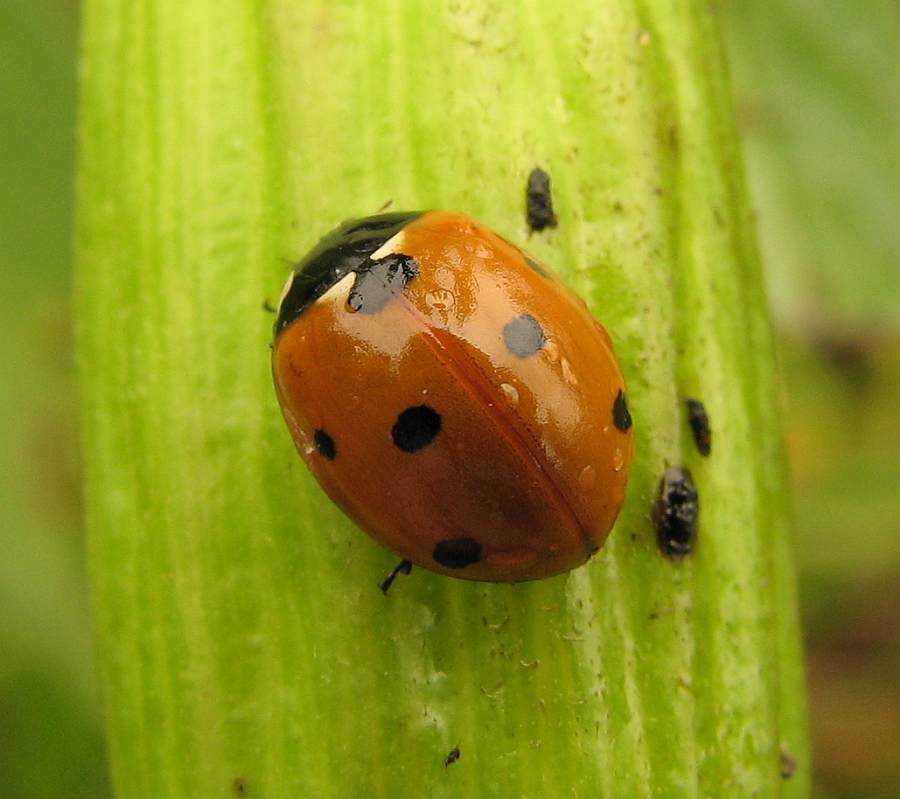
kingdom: Animalia
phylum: Arthropoda
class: Insecta
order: Coleoptera
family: Coccinellidae
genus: Coccinella
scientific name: Coccinella septempunctata
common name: Sevenspotted lady beetle
